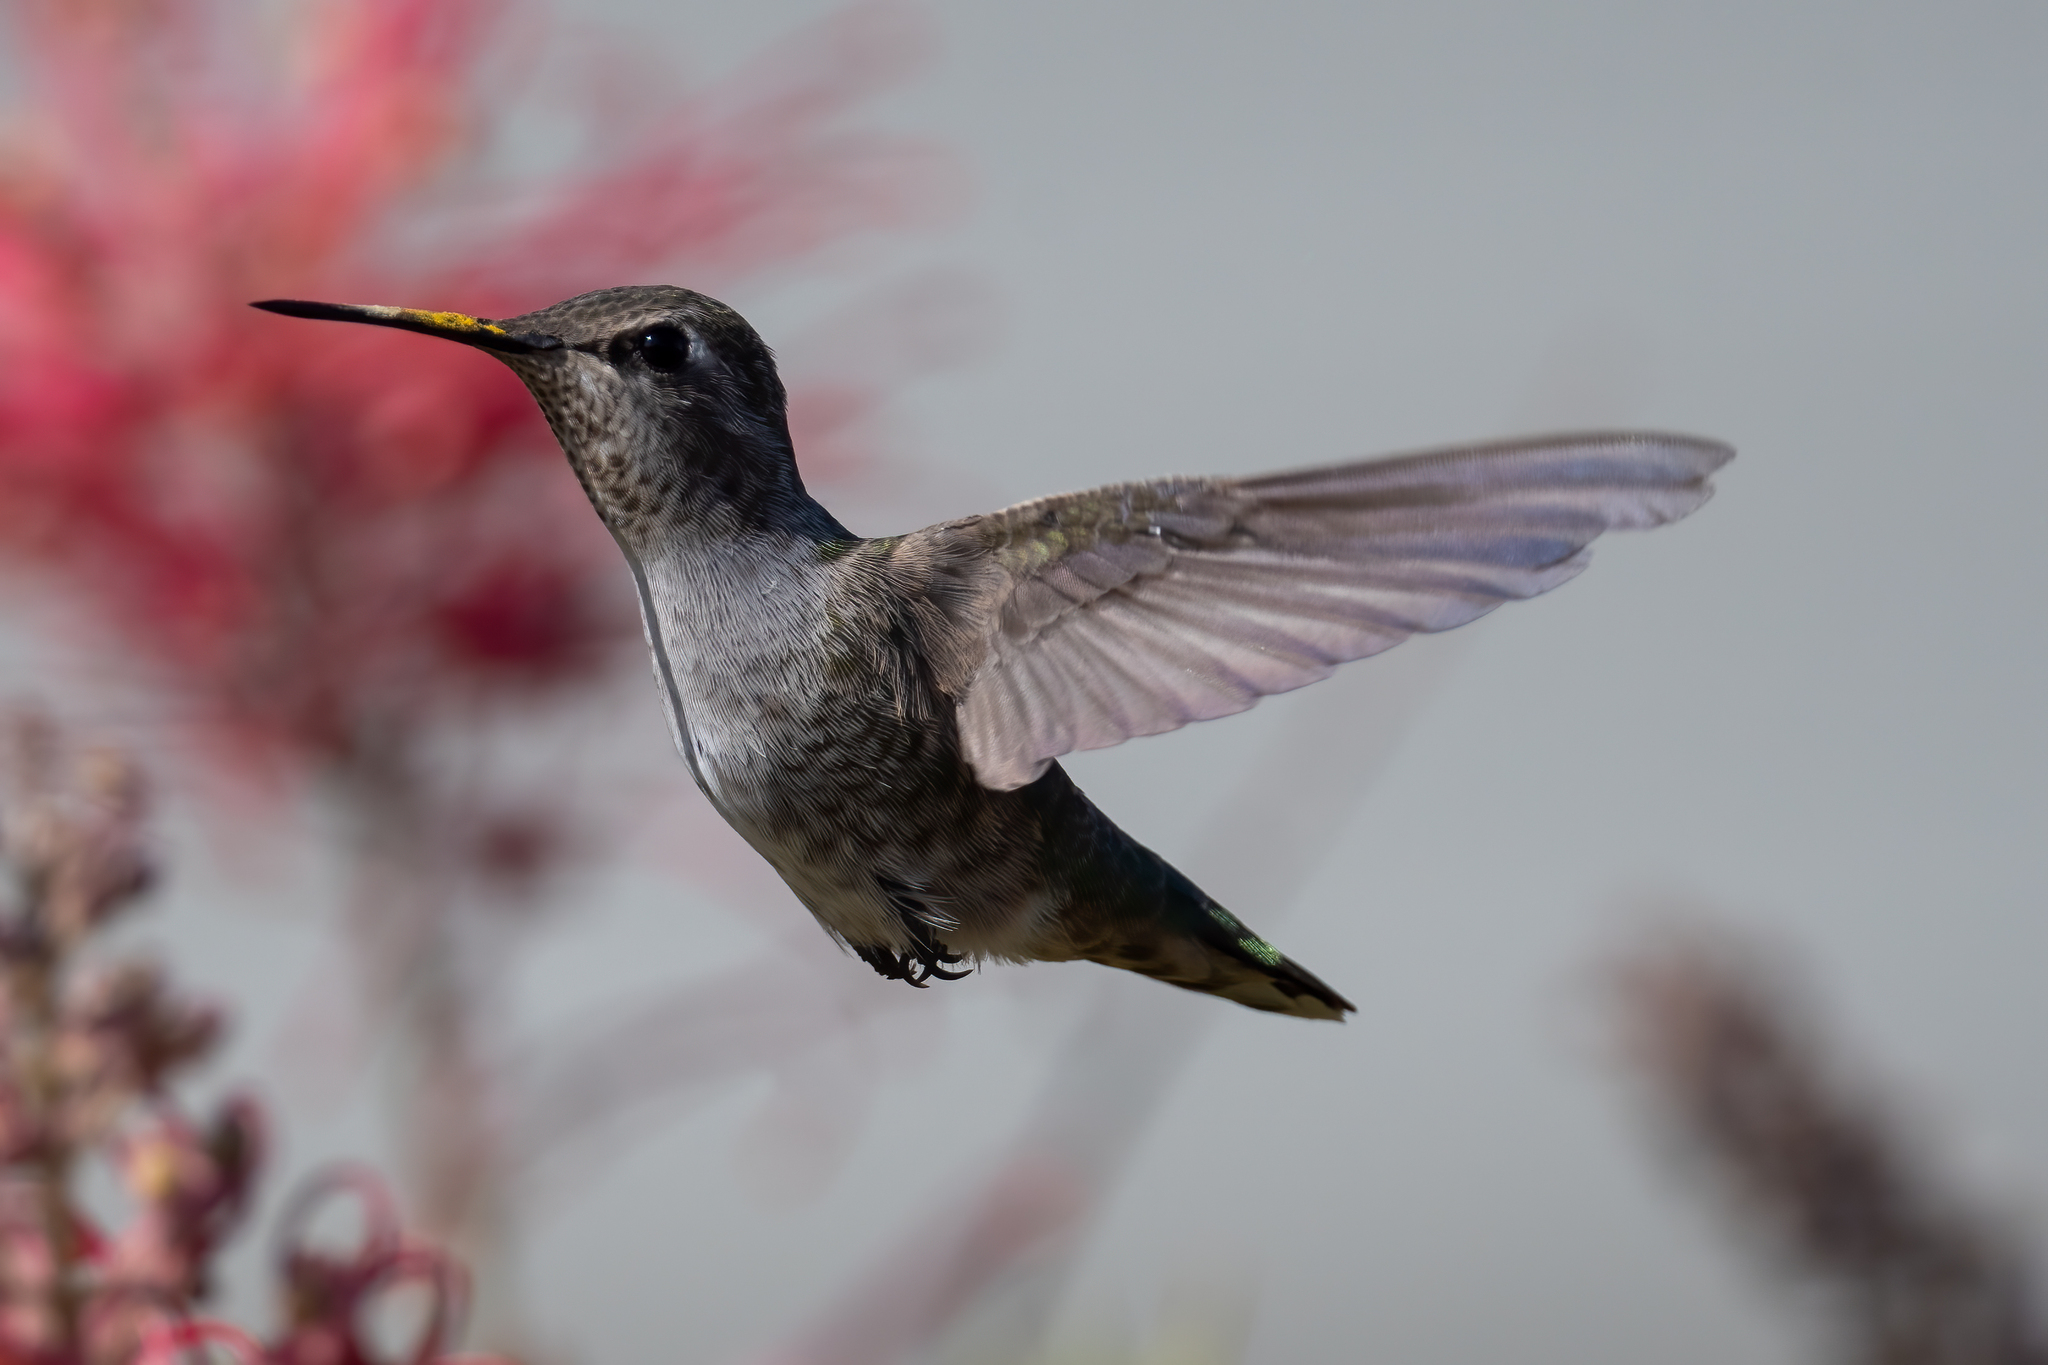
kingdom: Animalia
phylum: Chordata
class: Aves
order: Apodiformes
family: Trochilidae
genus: Calypte
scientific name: Calypte anna
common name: Anna's hummingbird
